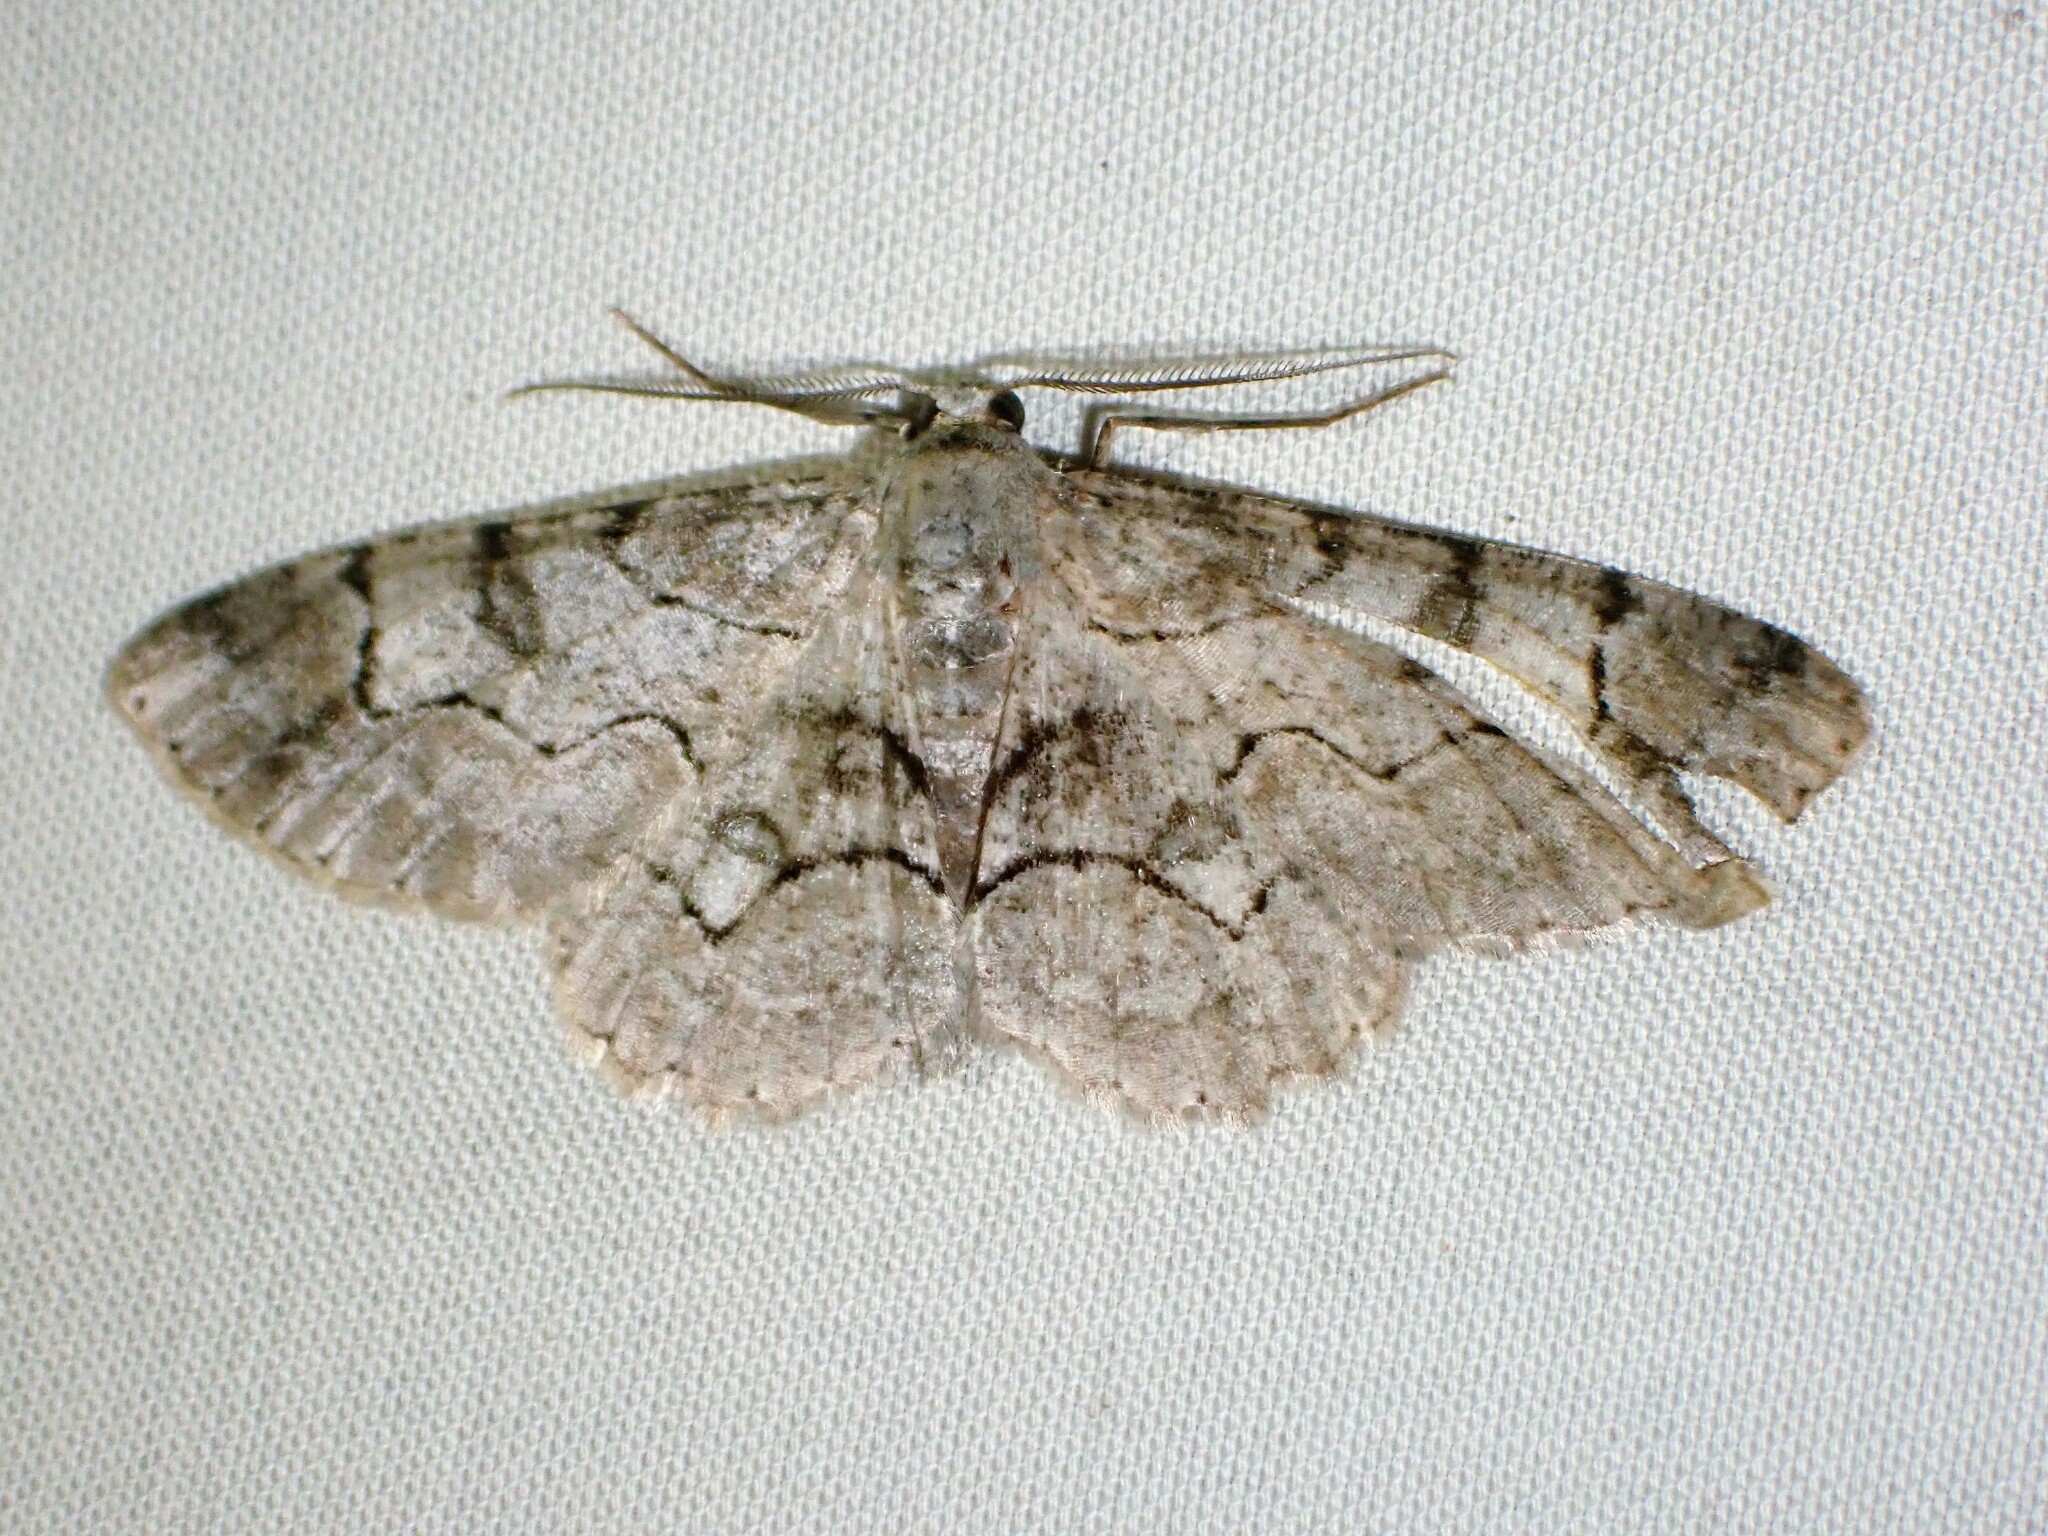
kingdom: Animalia
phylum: Arthropoda
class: Insecta
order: Lepidoptera
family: Geometridae
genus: Iridopsis
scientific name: Iridopsis larvaria
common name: Bent-line gray
